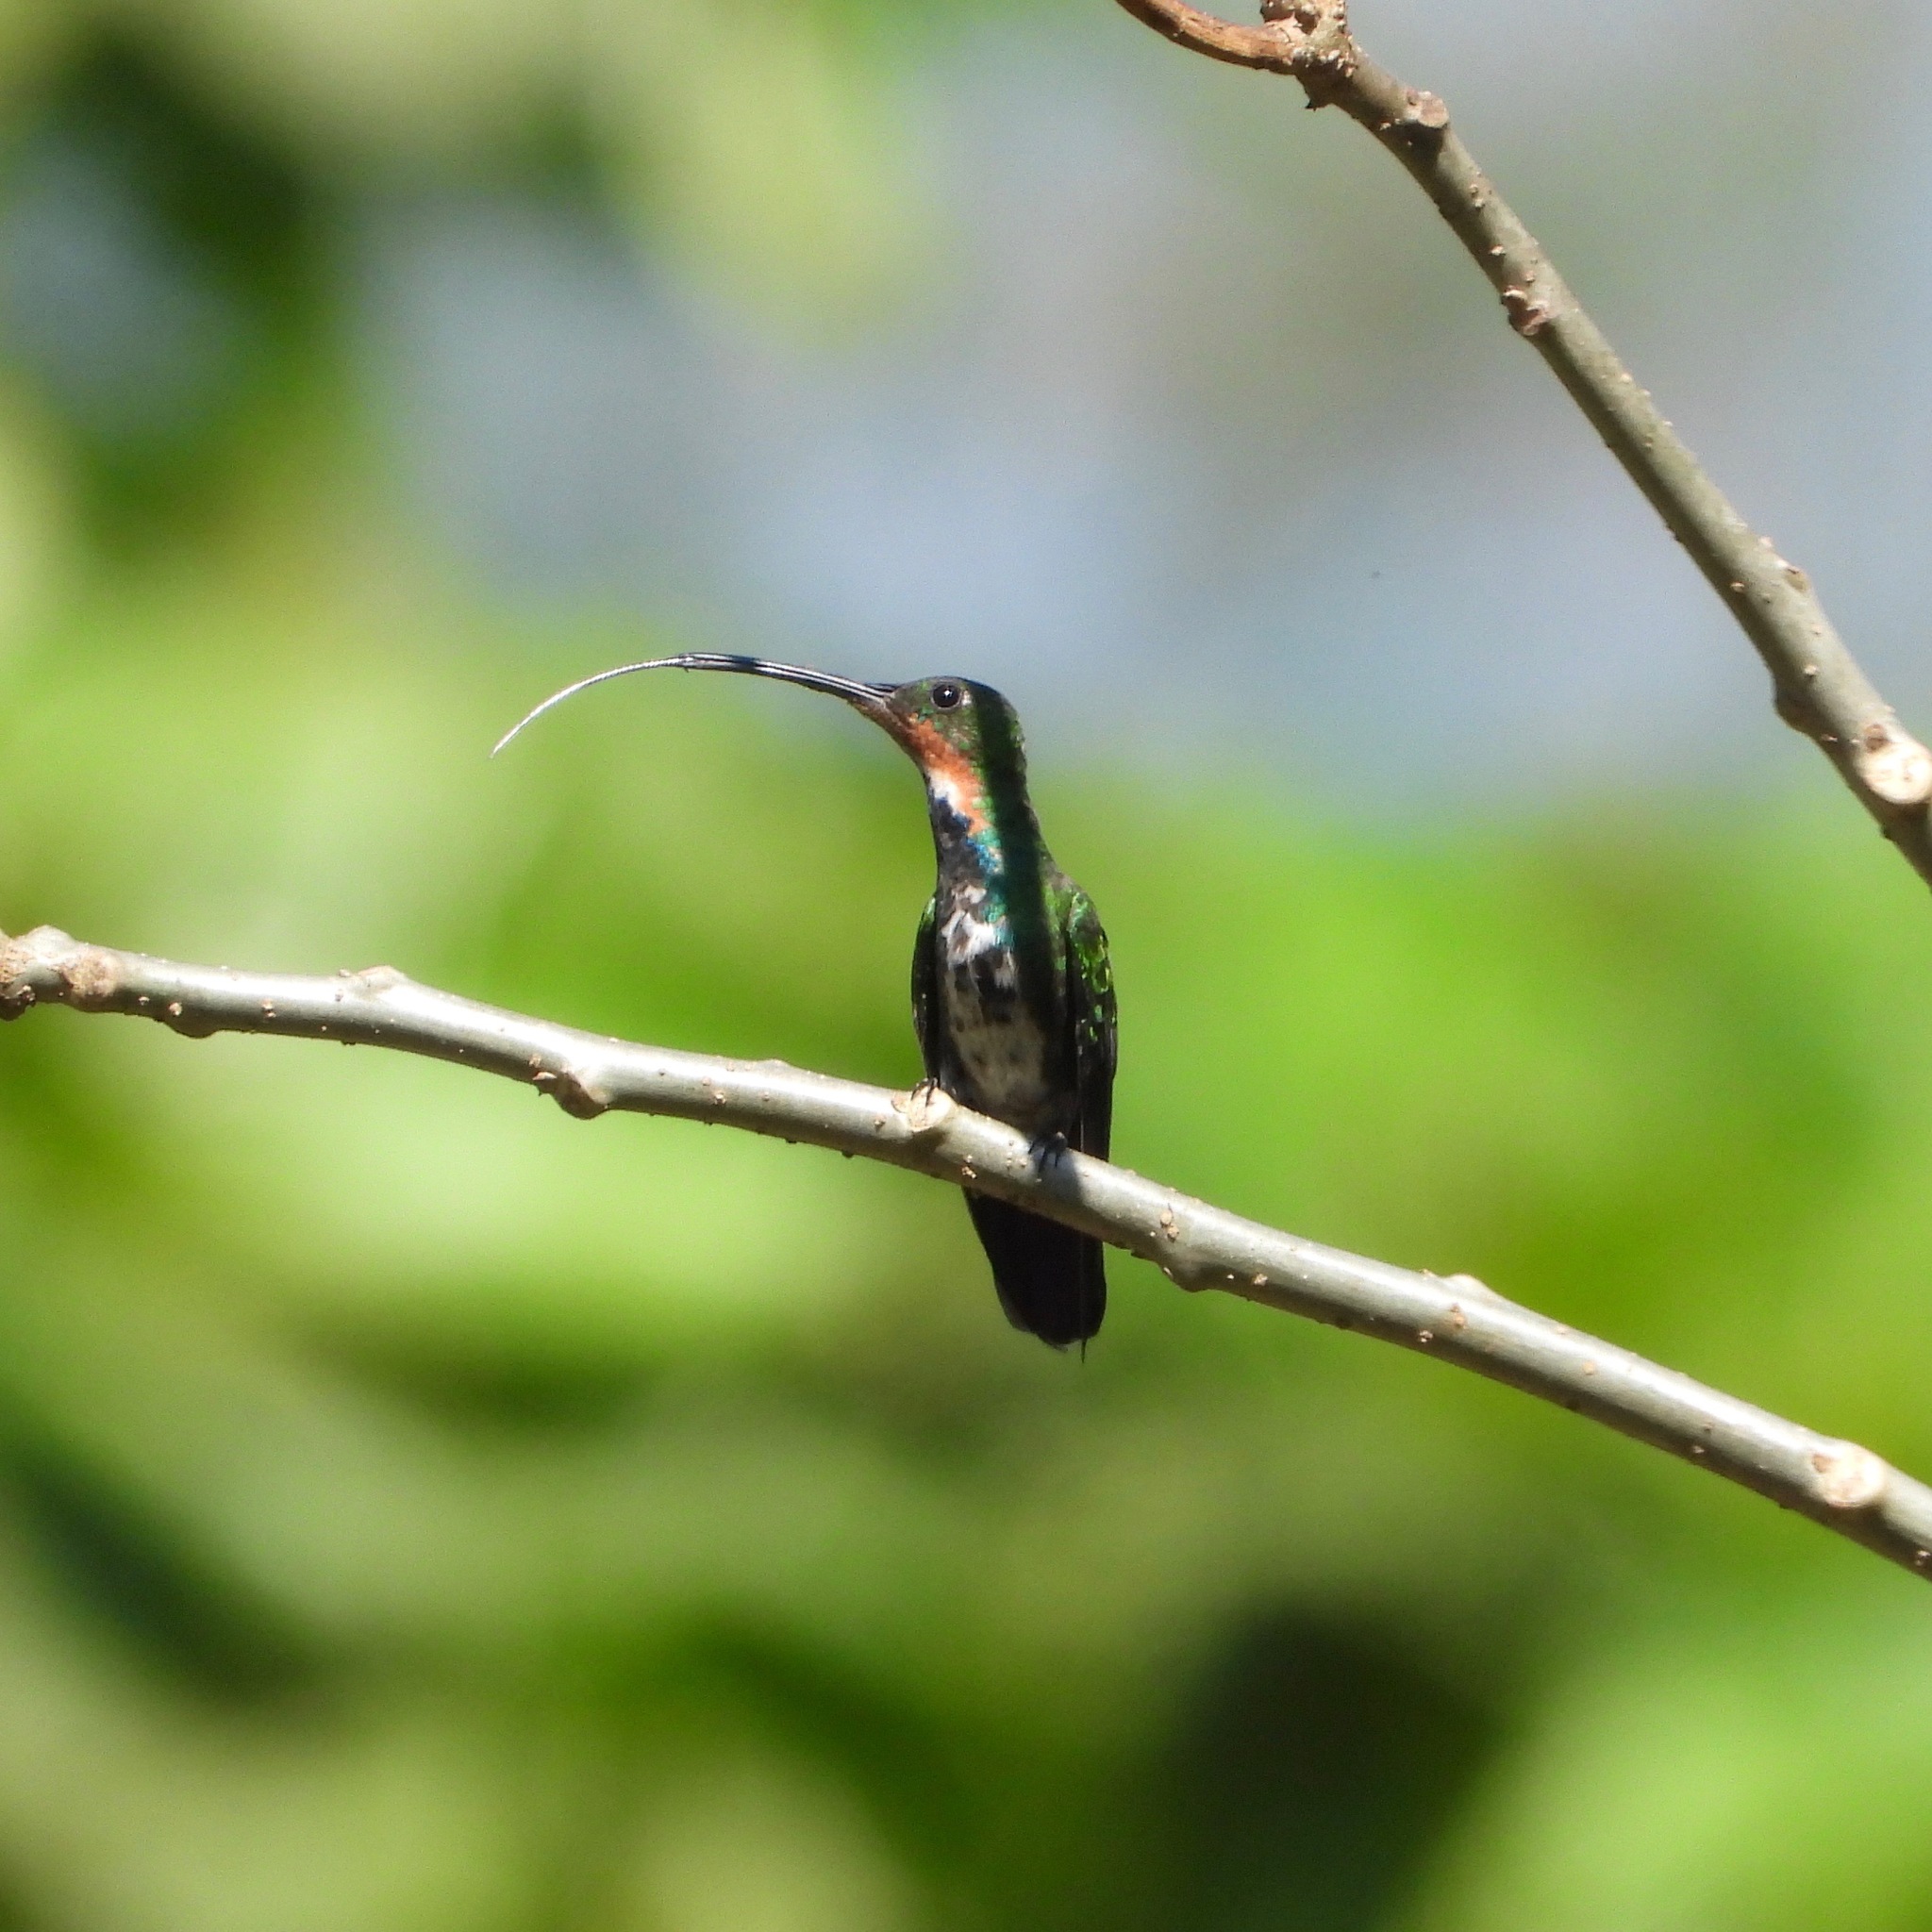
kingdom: Animalia
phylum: Chordata
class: Aves
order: Apodiformes
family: Trochilidae
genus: Anthracothorax
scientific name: Anthracothorax prevostii
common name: Green-breasted mango
